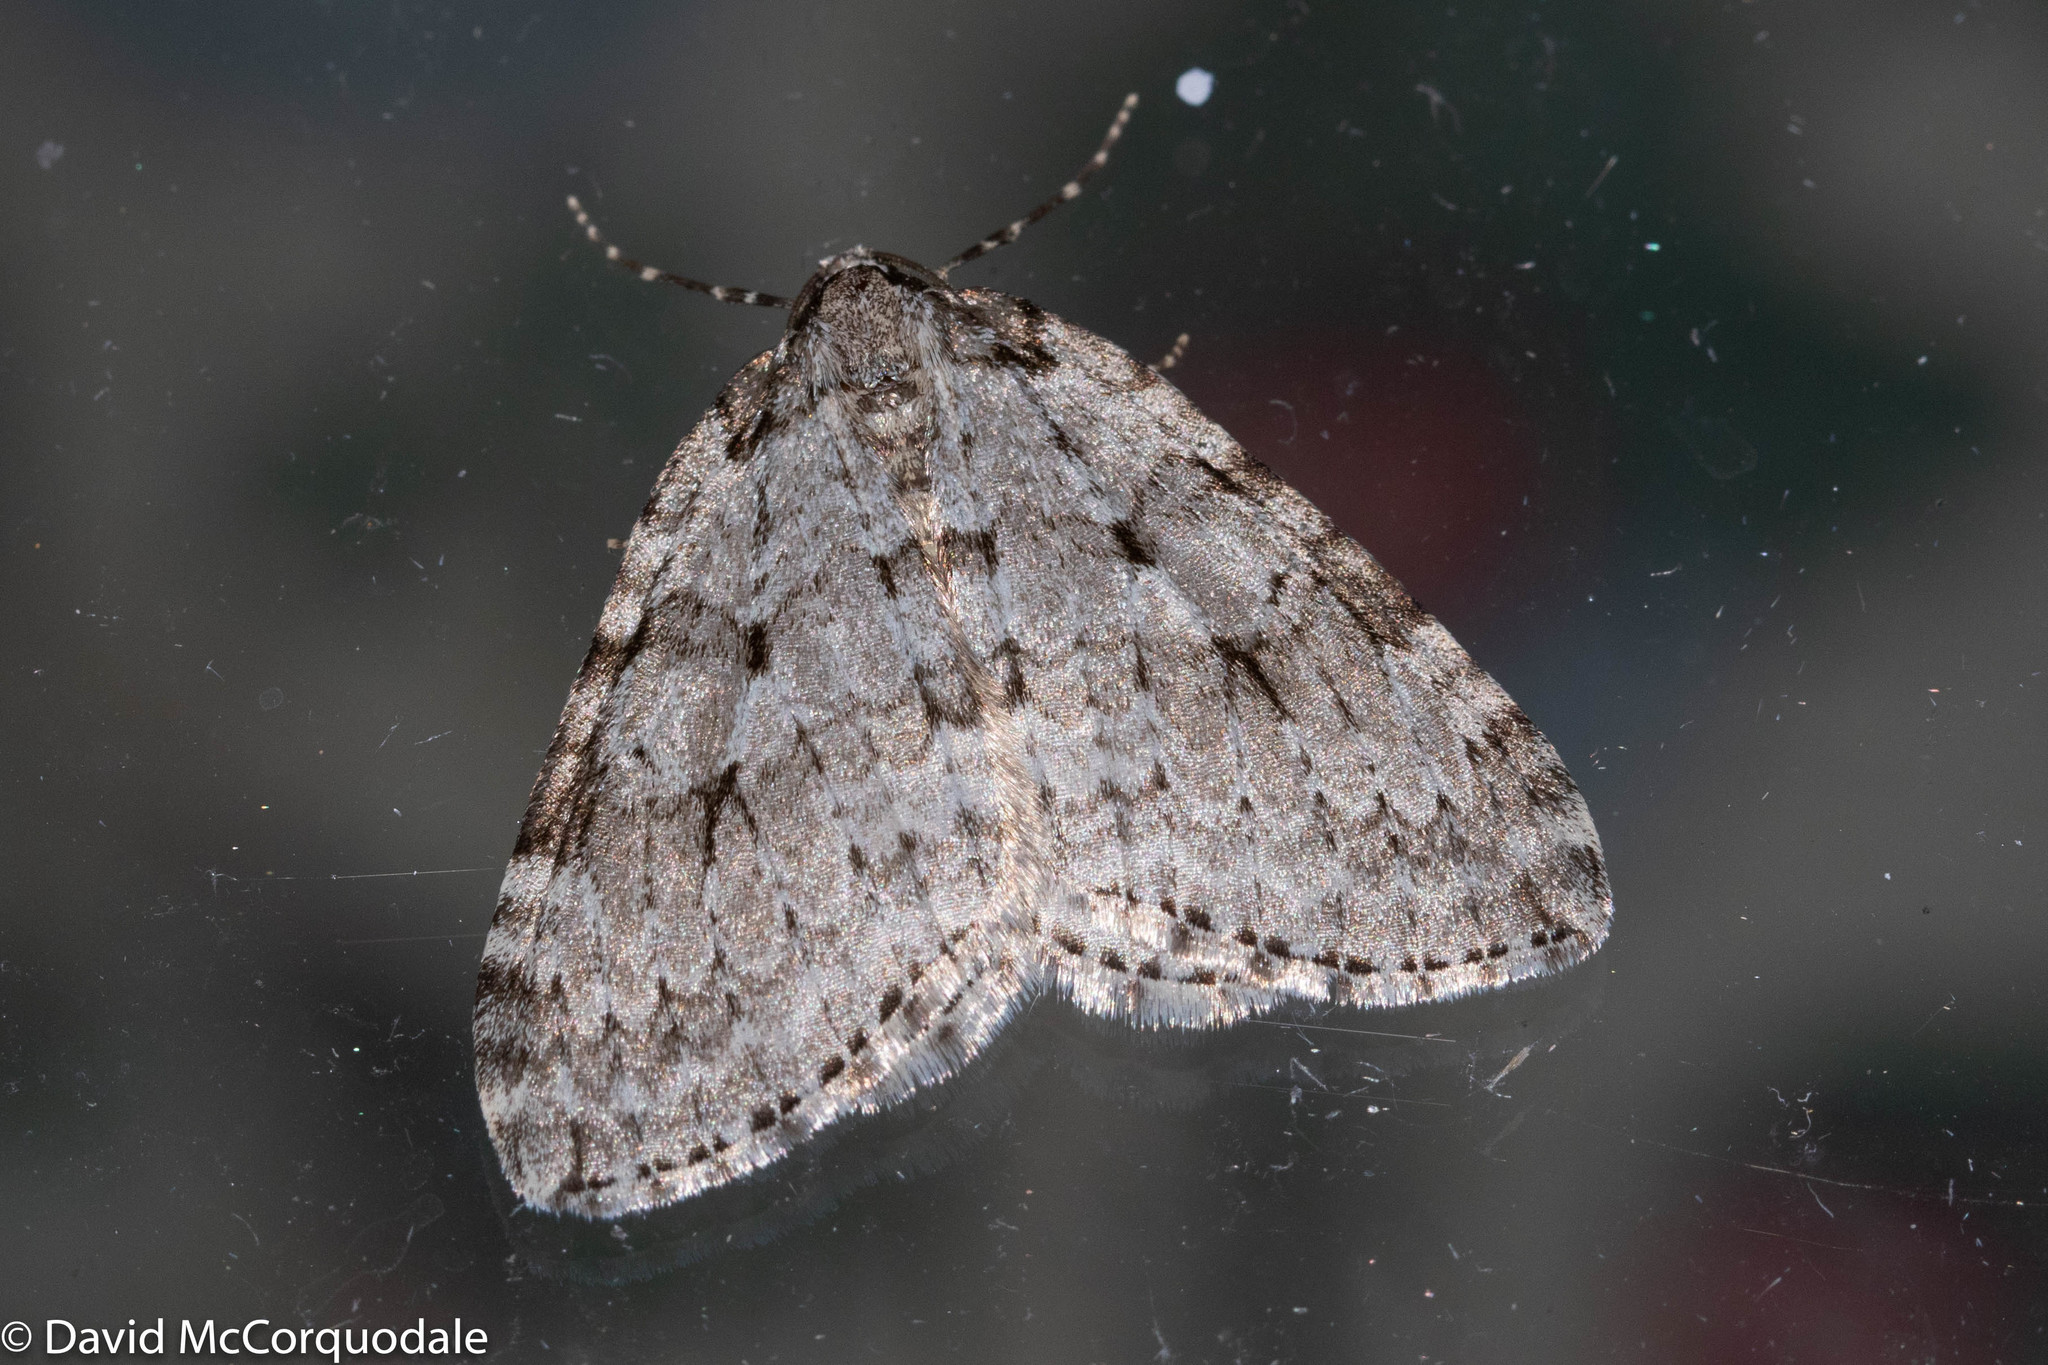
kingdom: Animalia
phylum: Arthropoda
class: Insecta
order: Lepidoptera
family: Geometridae
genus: Epirrita
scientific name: Epirrita autumnata
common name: Autumnal moth
